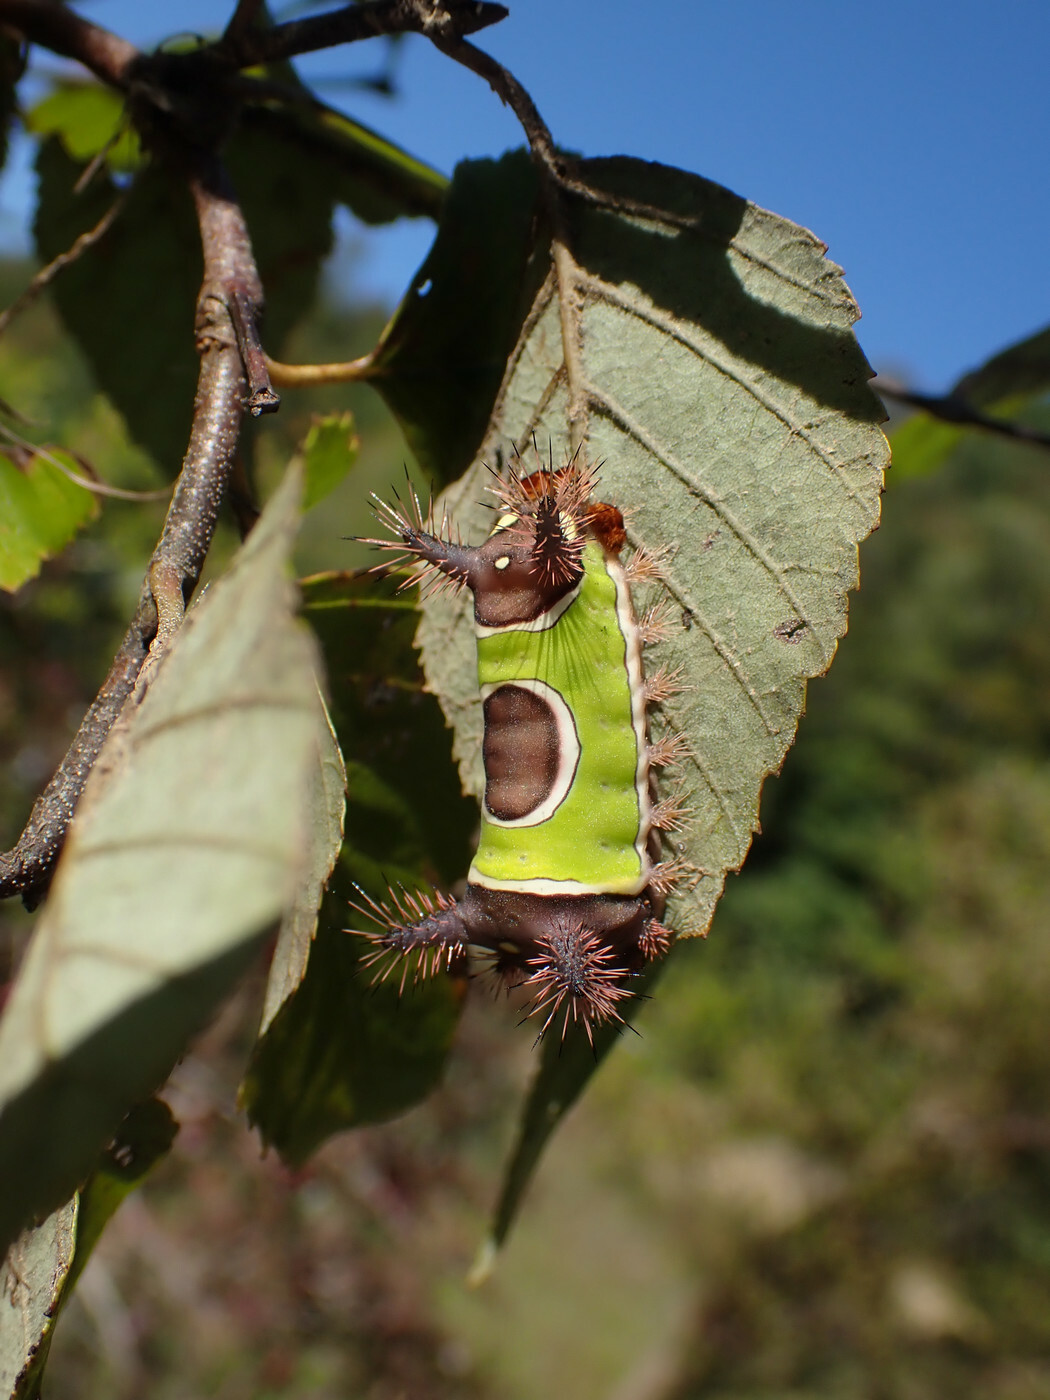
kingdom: Animalia
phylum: Arthropoda
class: Insecta
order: Lepidoptera
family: Limacodidae
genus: Acharia
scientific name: Acharia stimulea
